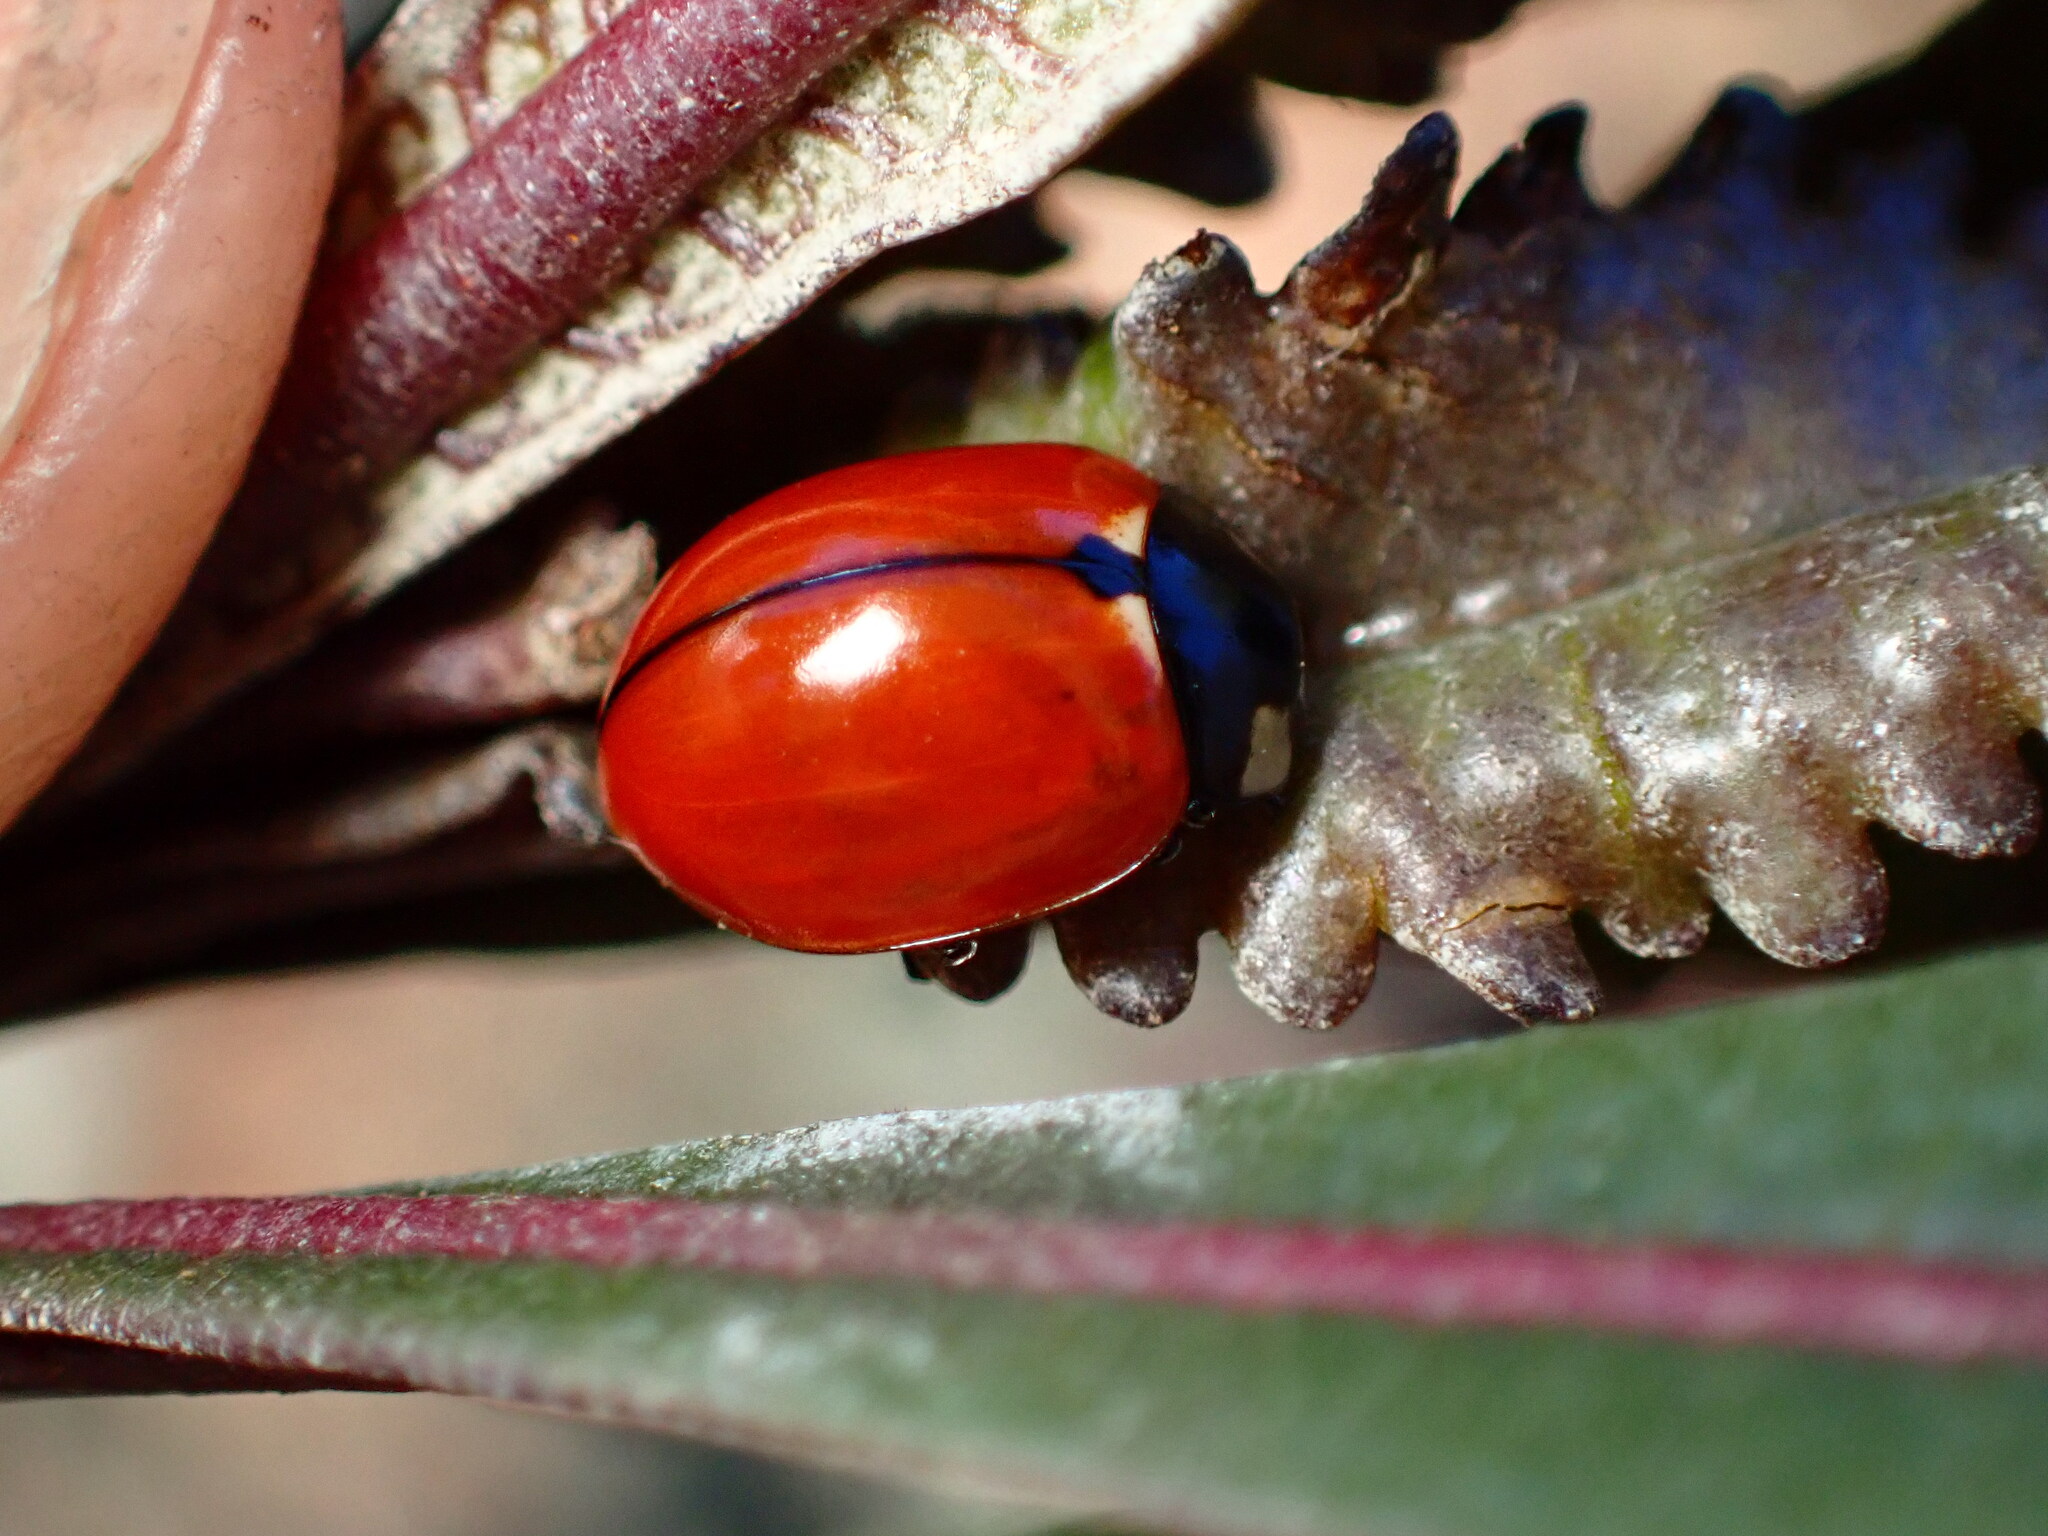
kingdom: Animalia
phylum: Arthropoda
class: Insecta
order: Coleoptera
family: Coccinellidae
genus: Coccinella
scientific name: Coccinella californica
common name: Lady beetle
